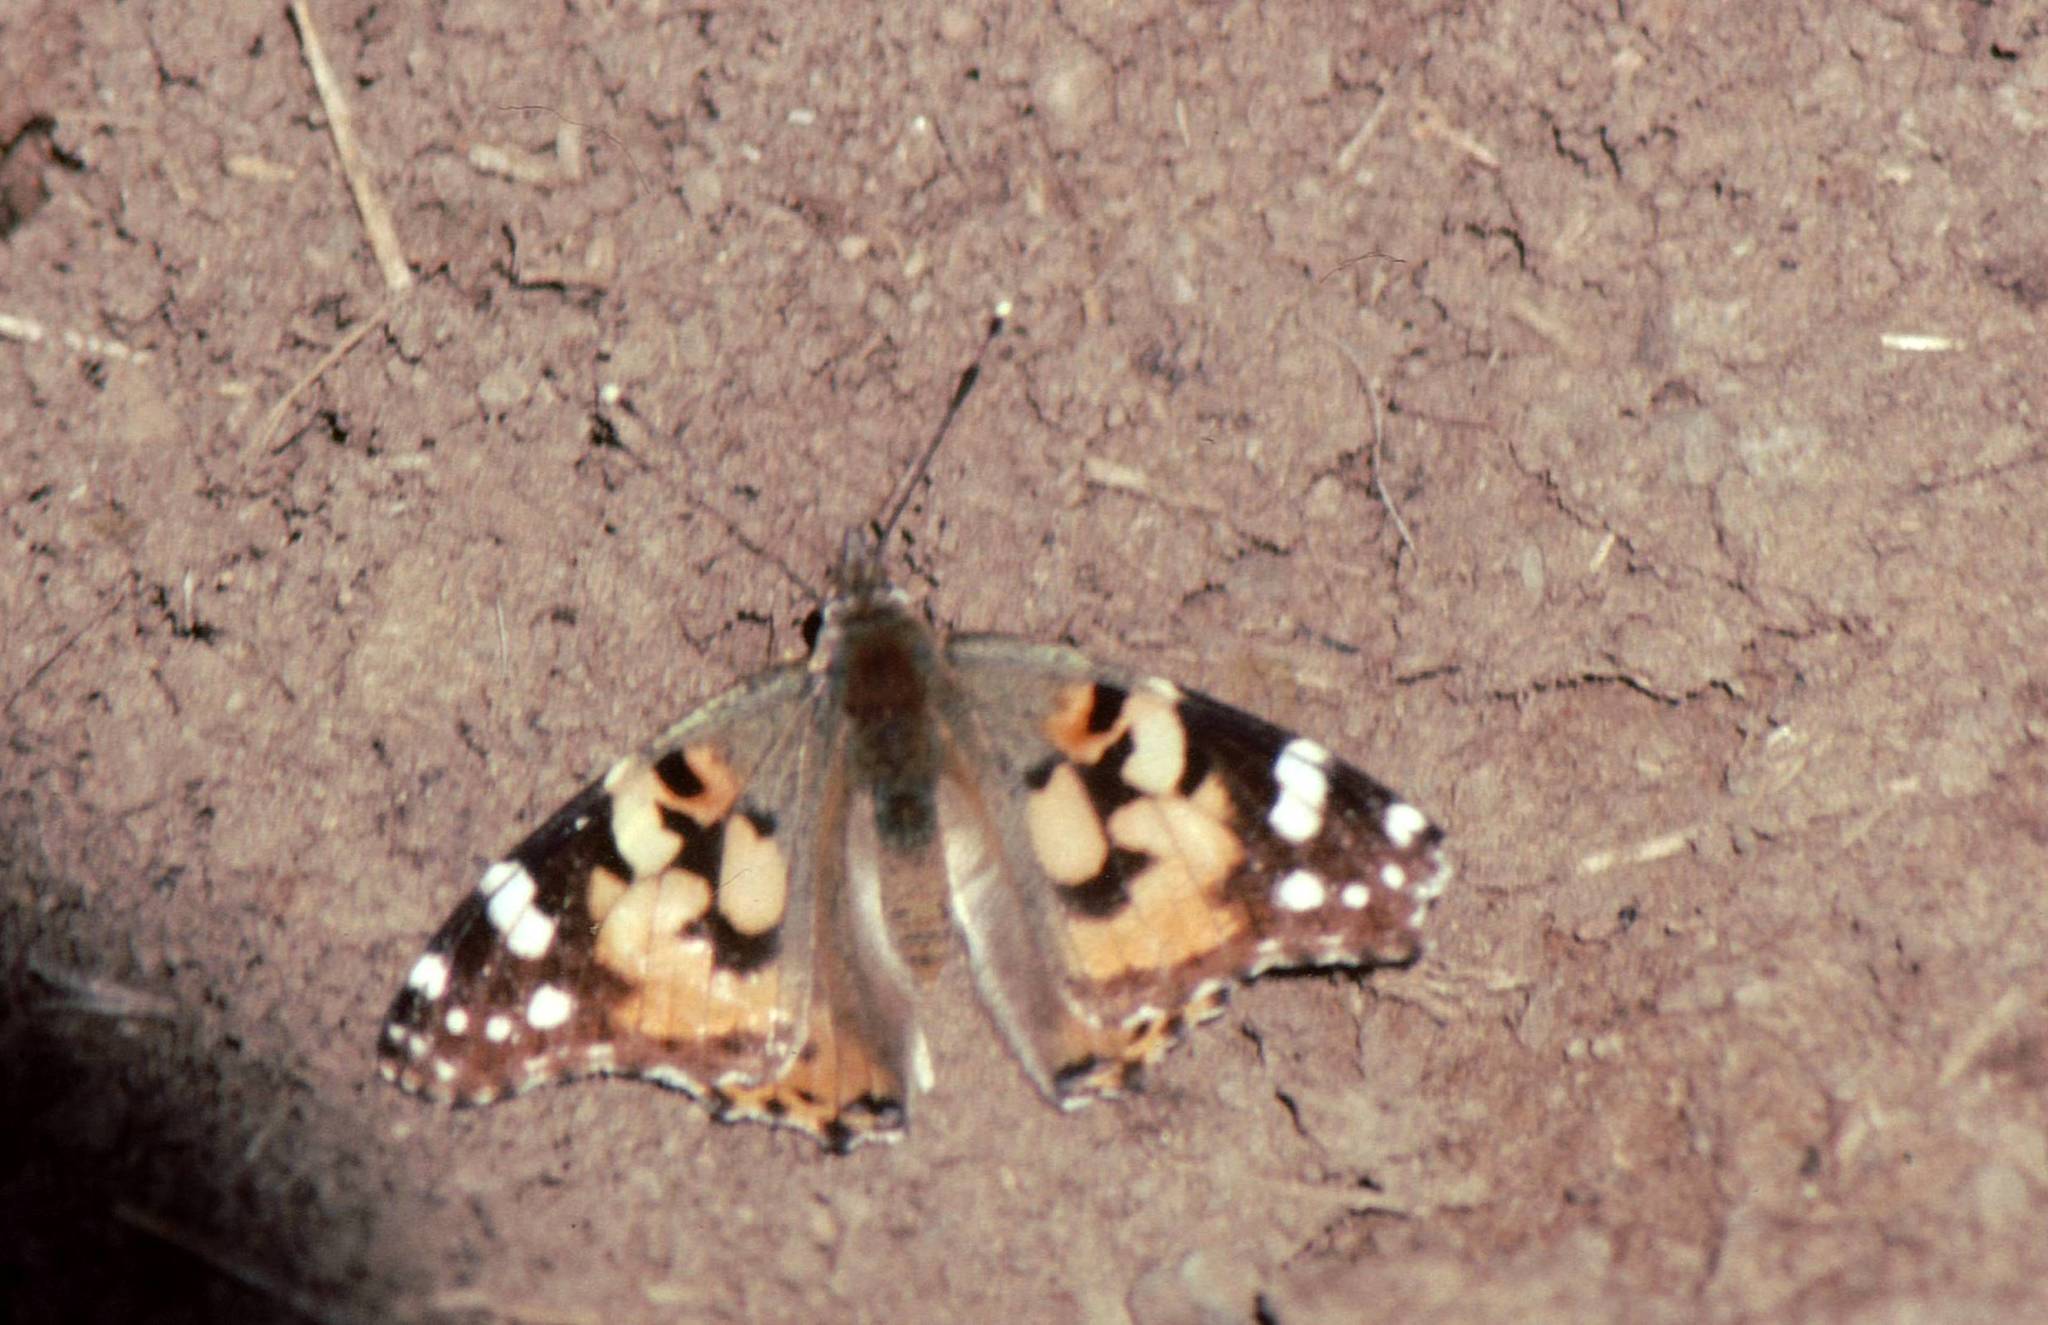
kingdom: Animalia
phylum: Arthropoda
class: Insecta
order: Lepidoptera
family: Nymphalidae
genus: Vanessa
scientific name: Vanessa cardui
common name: Painted lady
